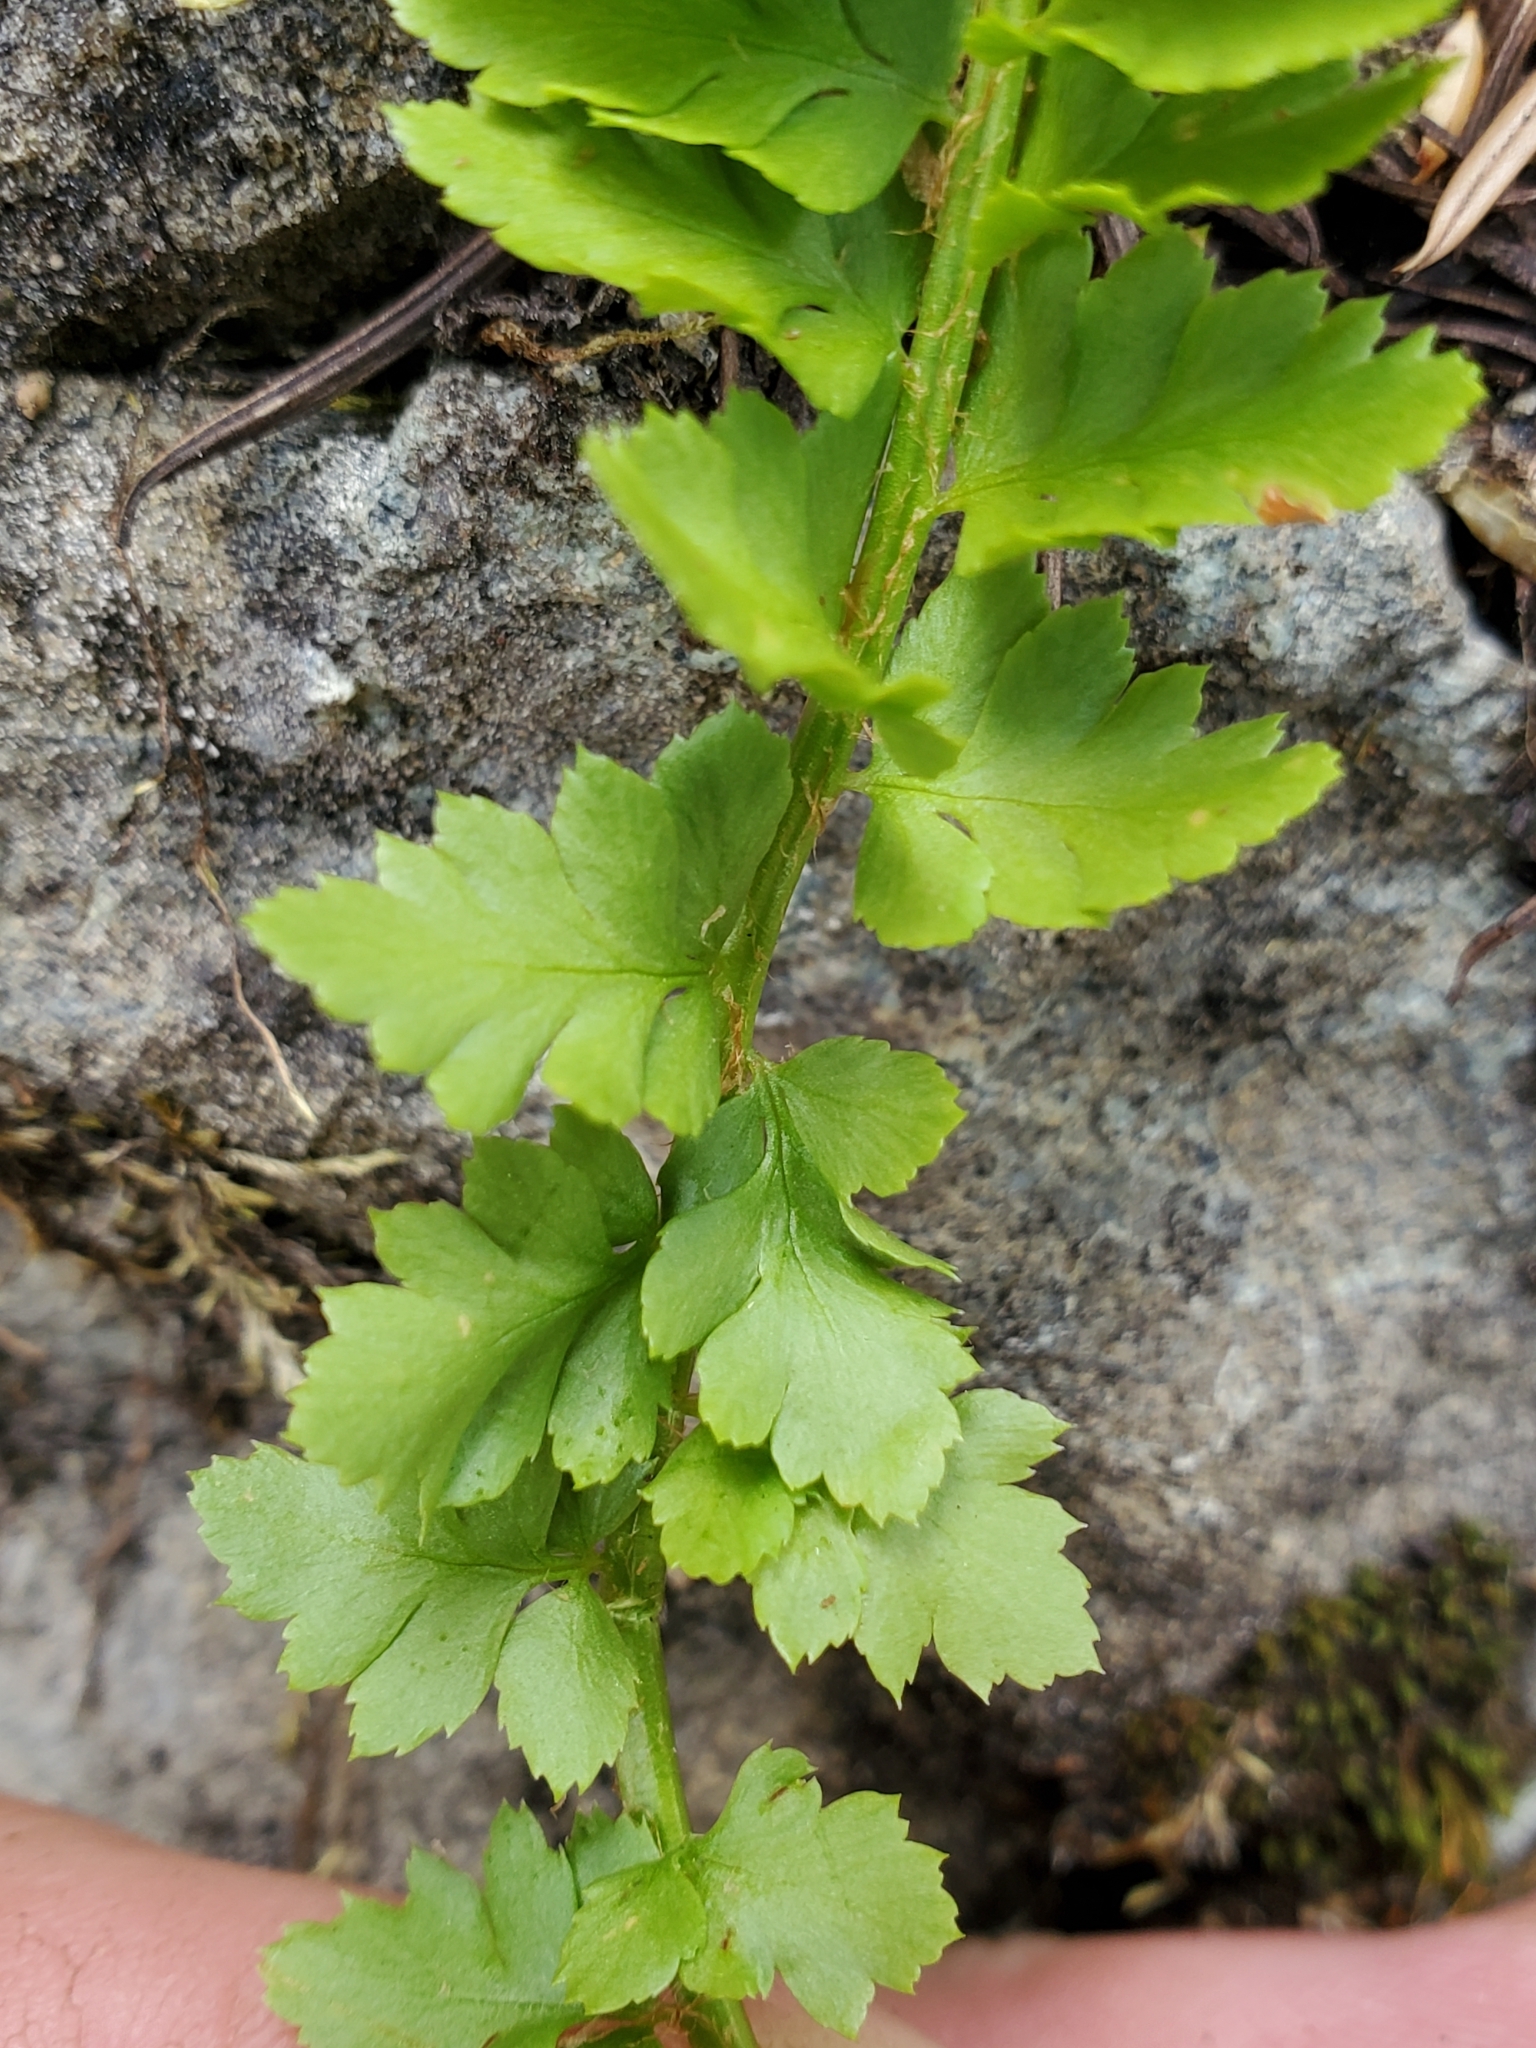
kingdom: Plantae
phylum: Tracheophyta
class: Polypodiopsida
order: Polypodiales
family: Dryopteridaceae
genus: Polystichum
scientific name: Polystichum kruckebergii
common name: Kruckeberg's holly fern
